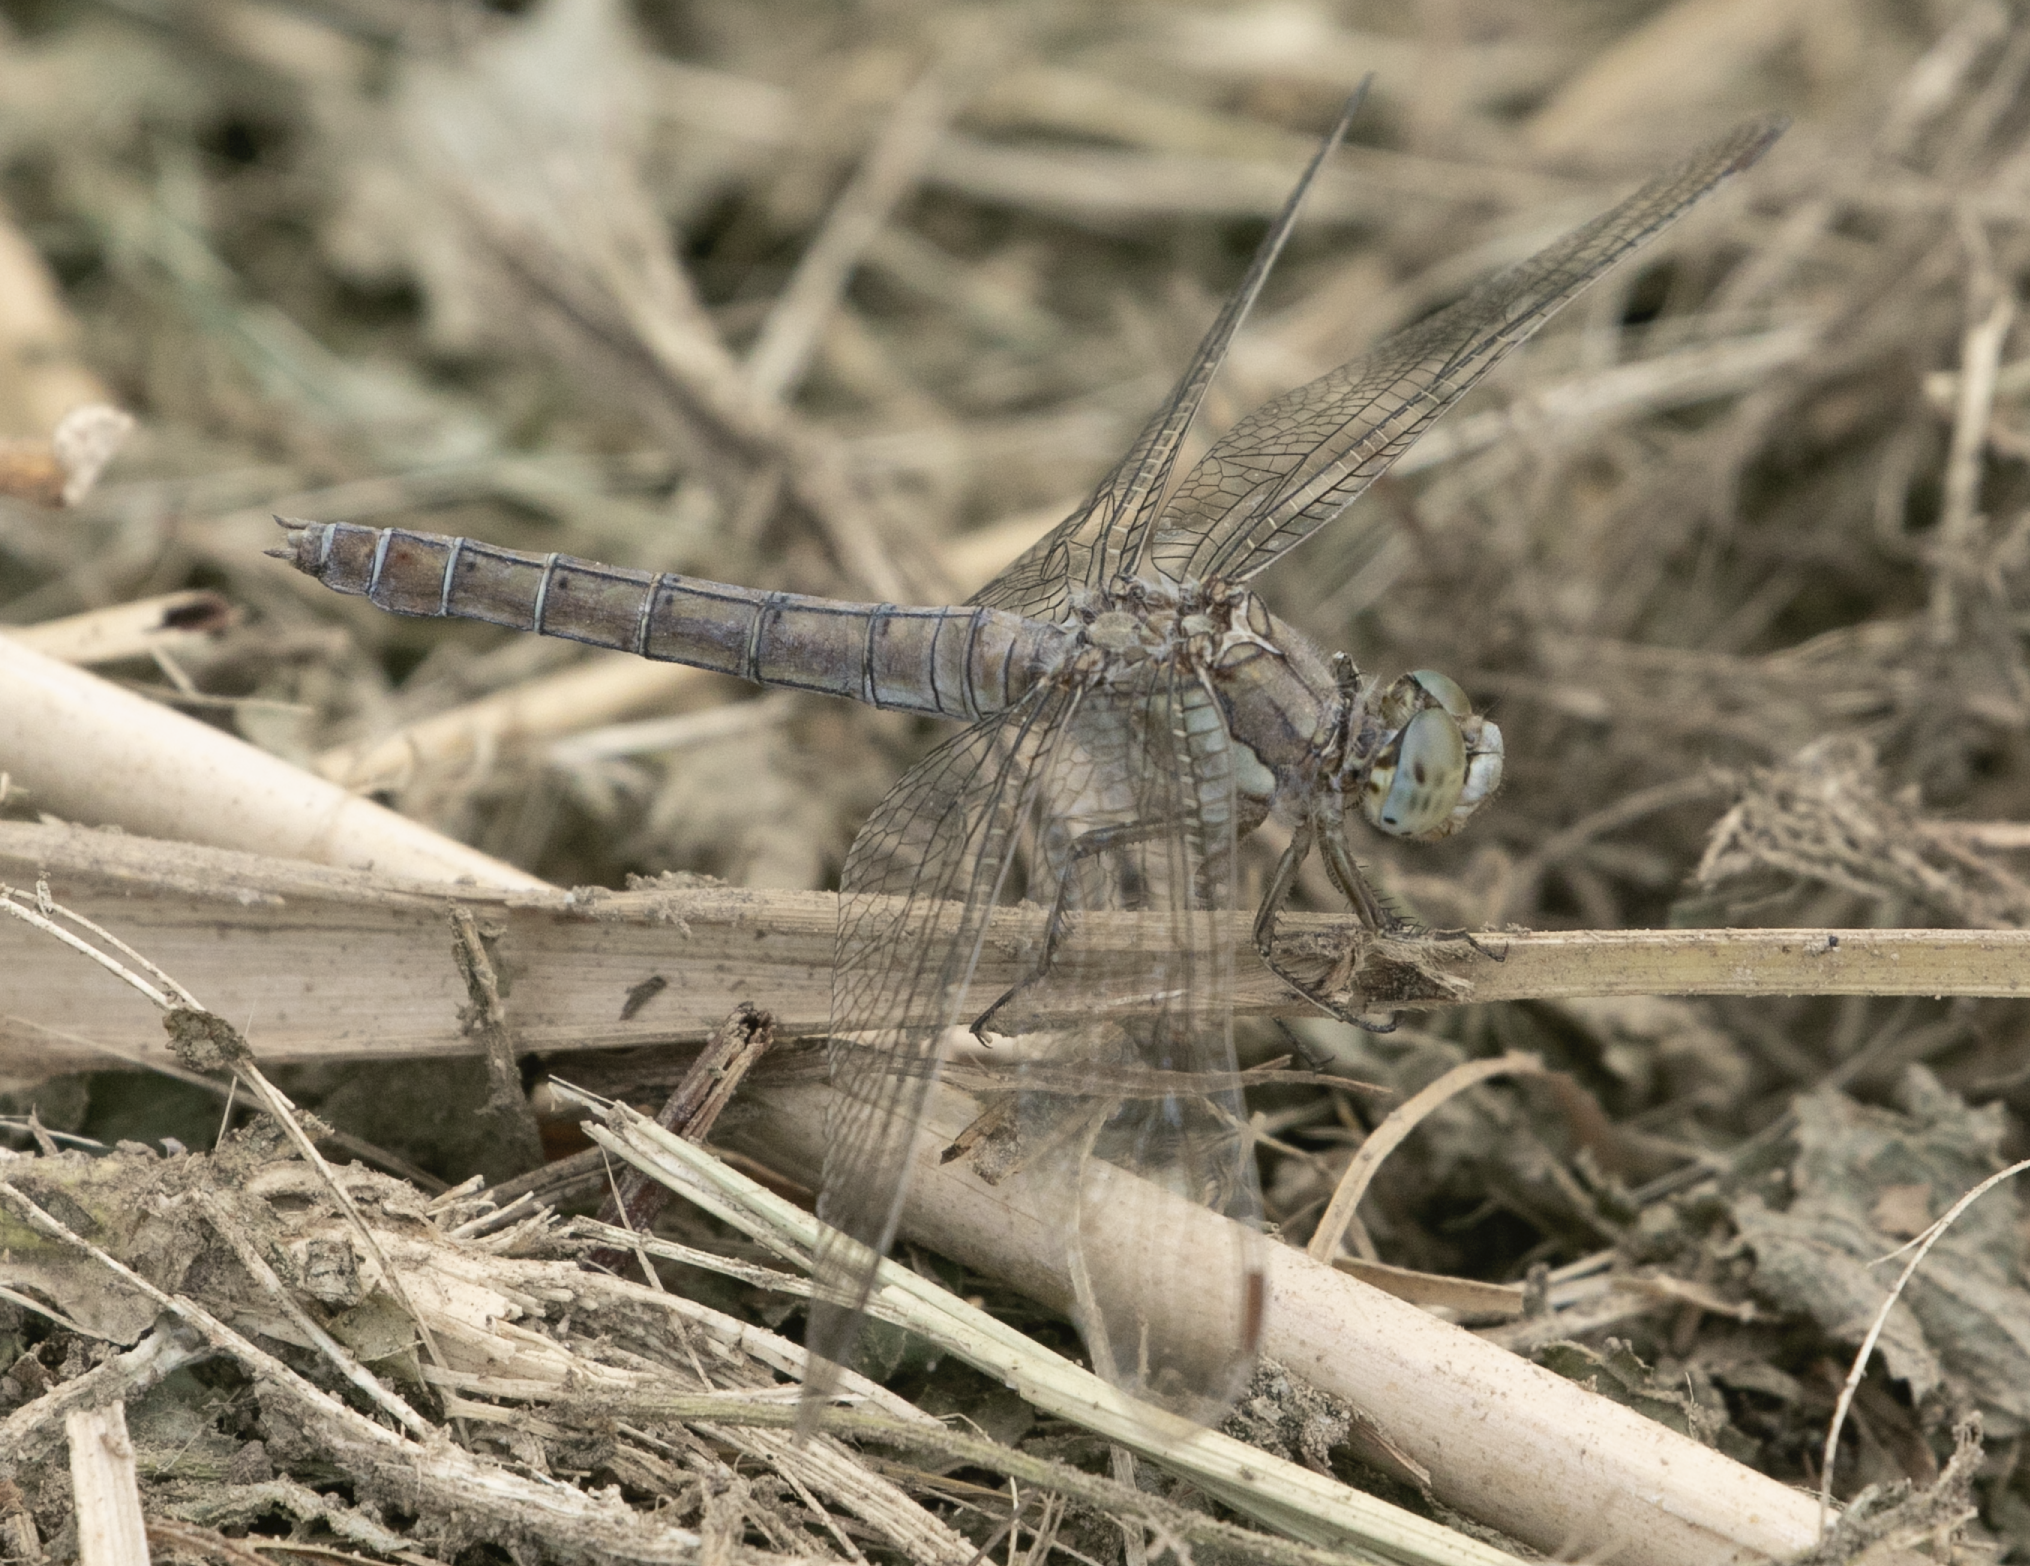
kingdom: Animalia
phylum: Arthropoda
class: Insecta
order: Odonata
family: Libellulidae
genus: Orthetrum
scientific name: Orthetrum brunneum
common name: Southern skimmer
